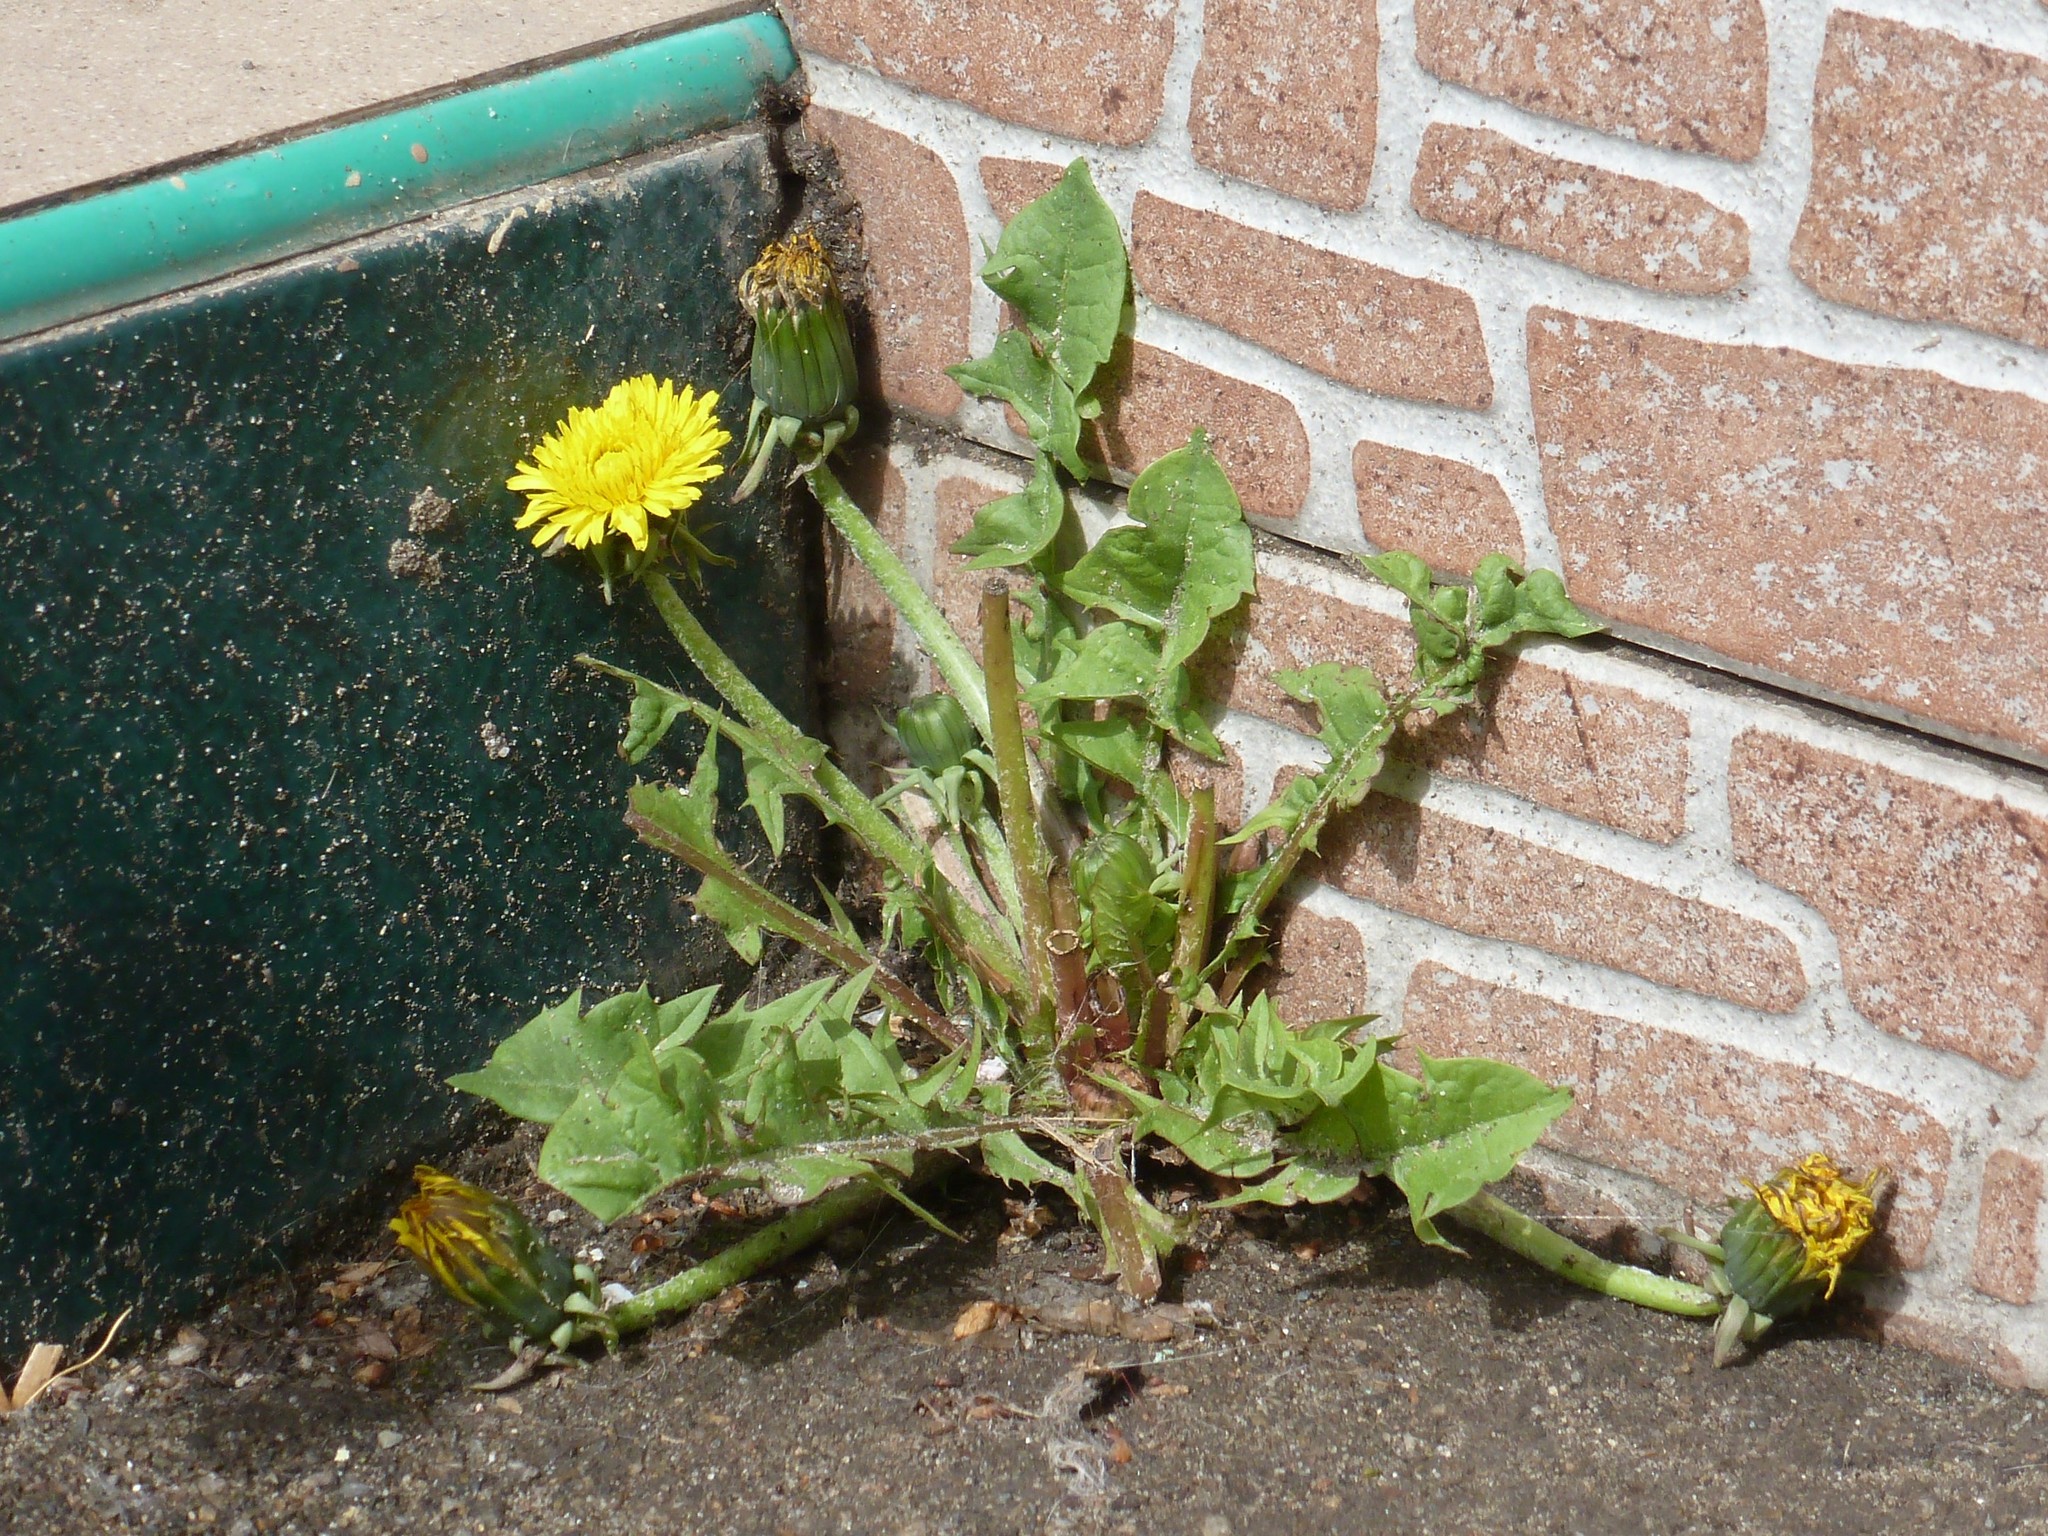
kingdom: Plantae
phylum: Tracheophyta
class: Magnoliopsida
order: Asterales
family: Asteraceae
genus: Taraxacum
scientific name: Taraxacum officinale
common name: Common dandelion
